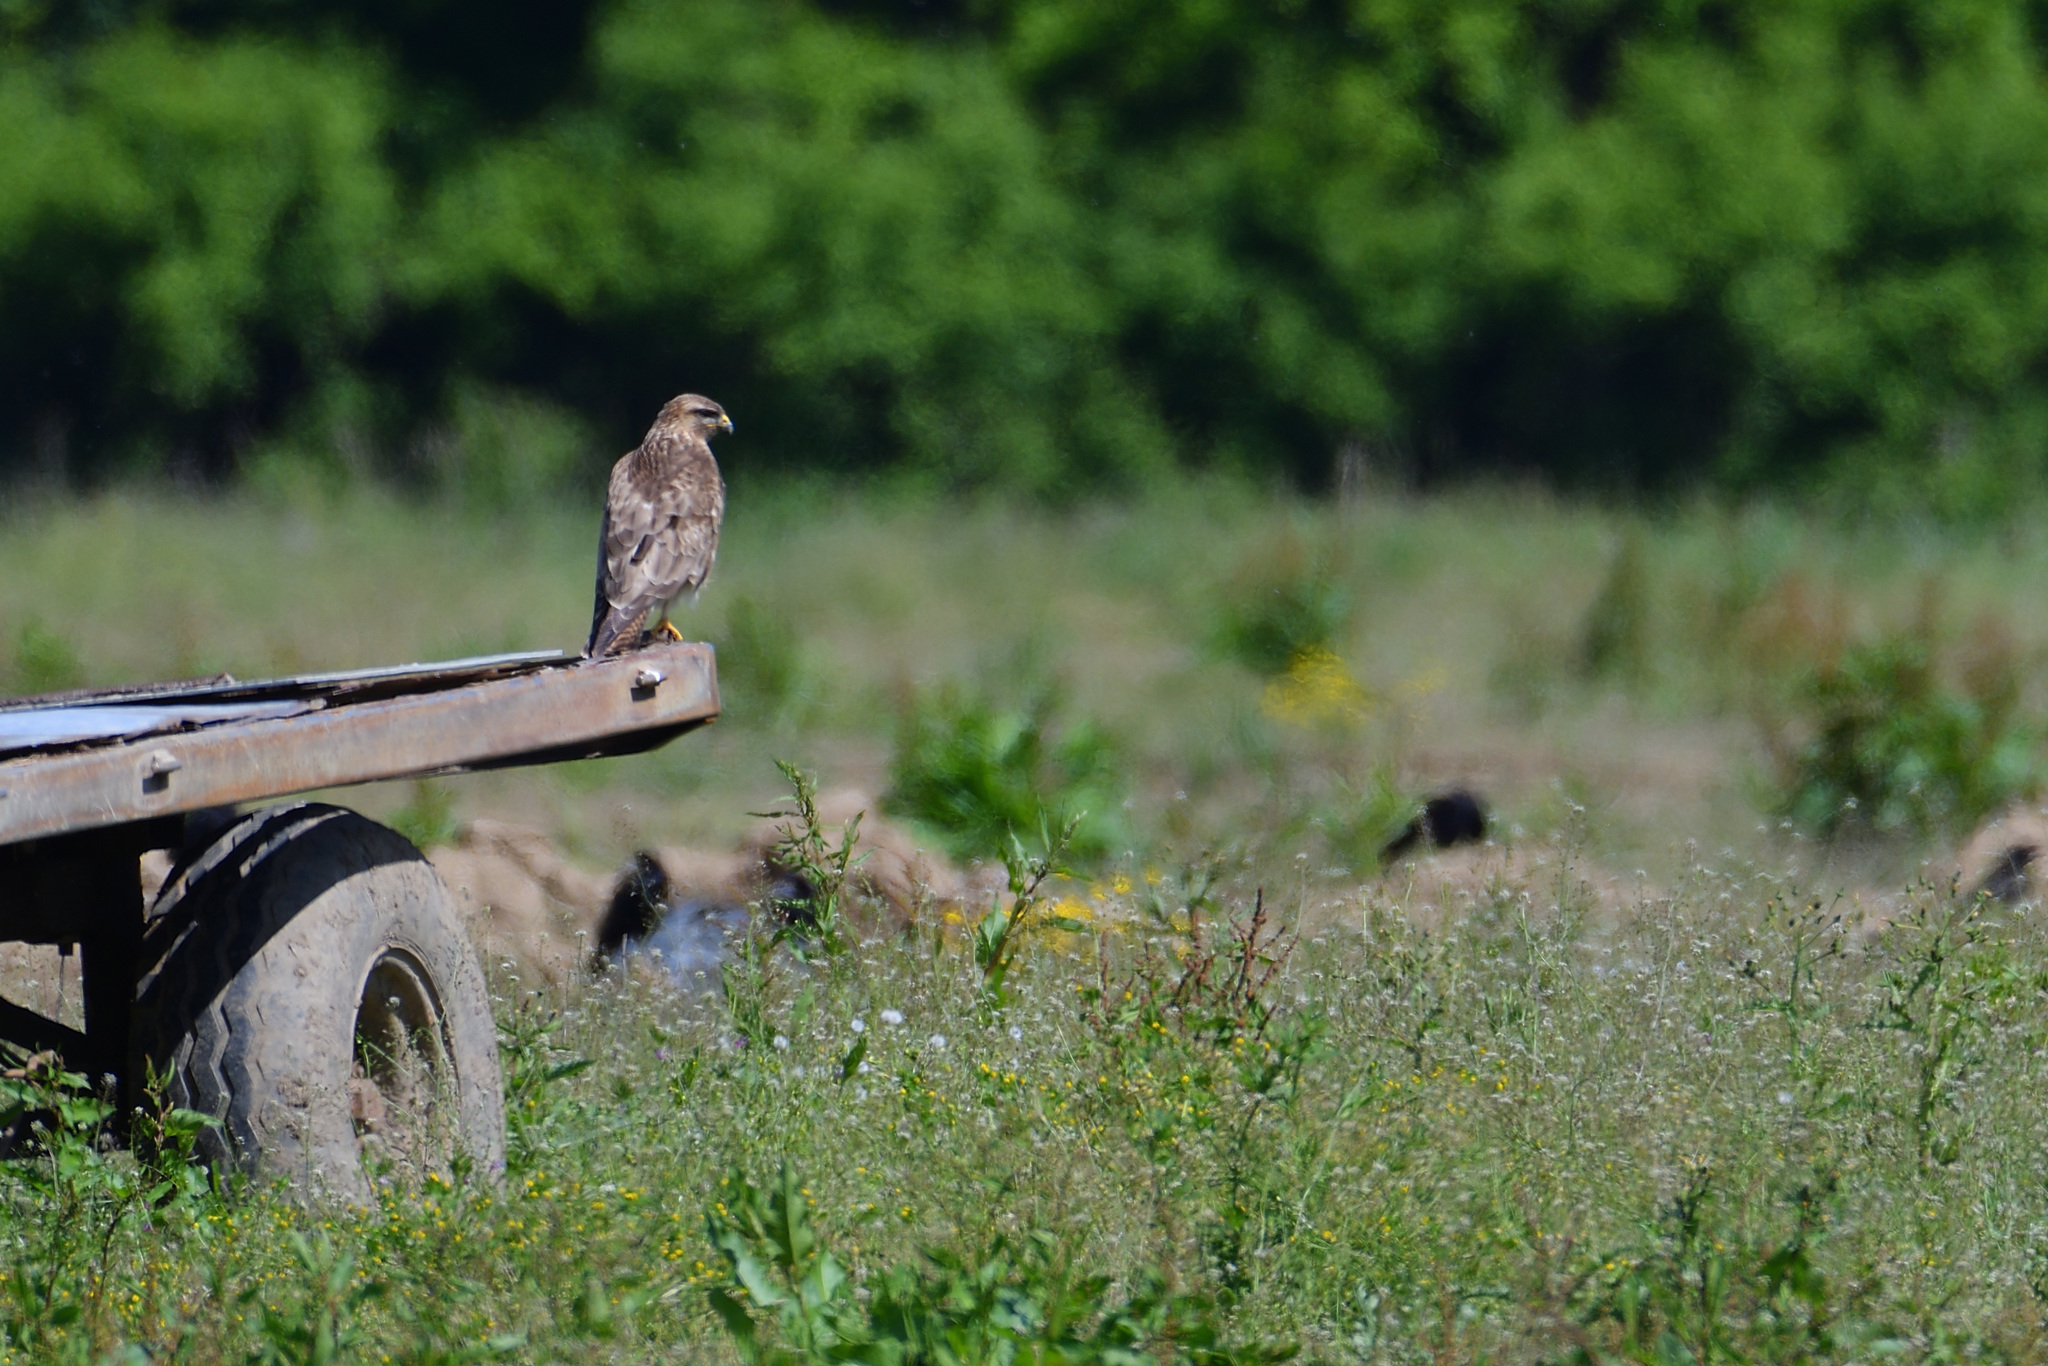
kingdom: Animalia
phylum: Chordata
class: Aves
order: Accipitriformes
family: Accipitridae
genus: Buteo
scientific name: Buteo buteo
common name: Common buzzard
